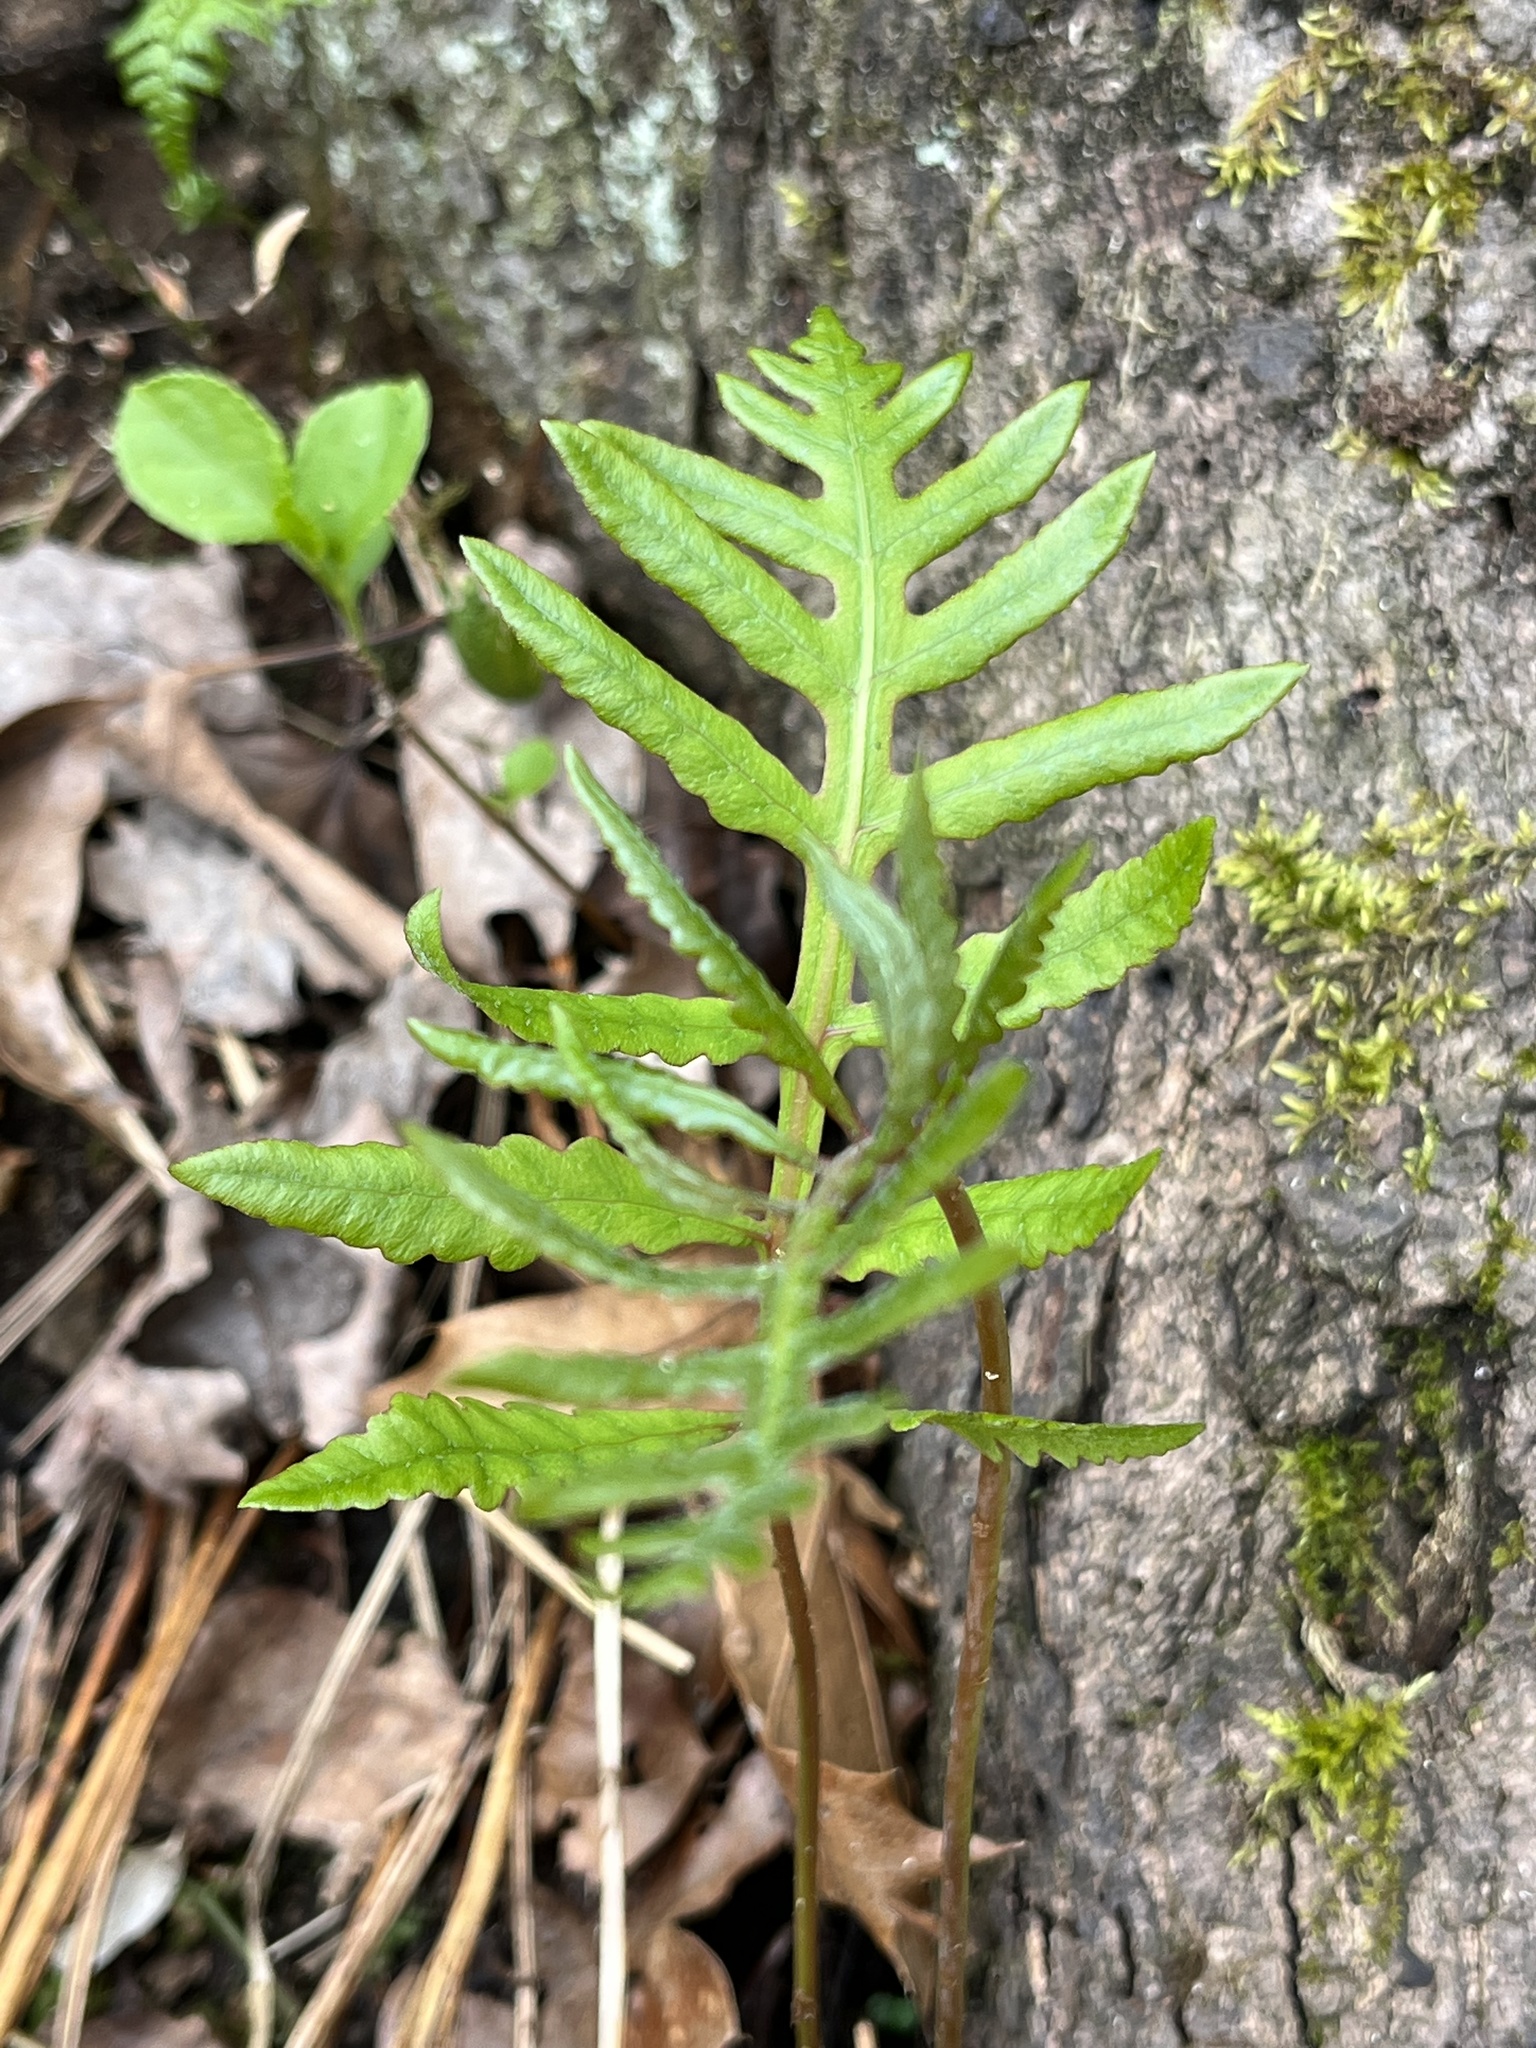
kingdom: Plantae
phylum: Tracheophyta
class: Polypodiopsida
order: Polypodiales
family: Onocleaceae
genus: Onoclea
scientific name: Onoclea sensibilis
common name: Sensitive fern
